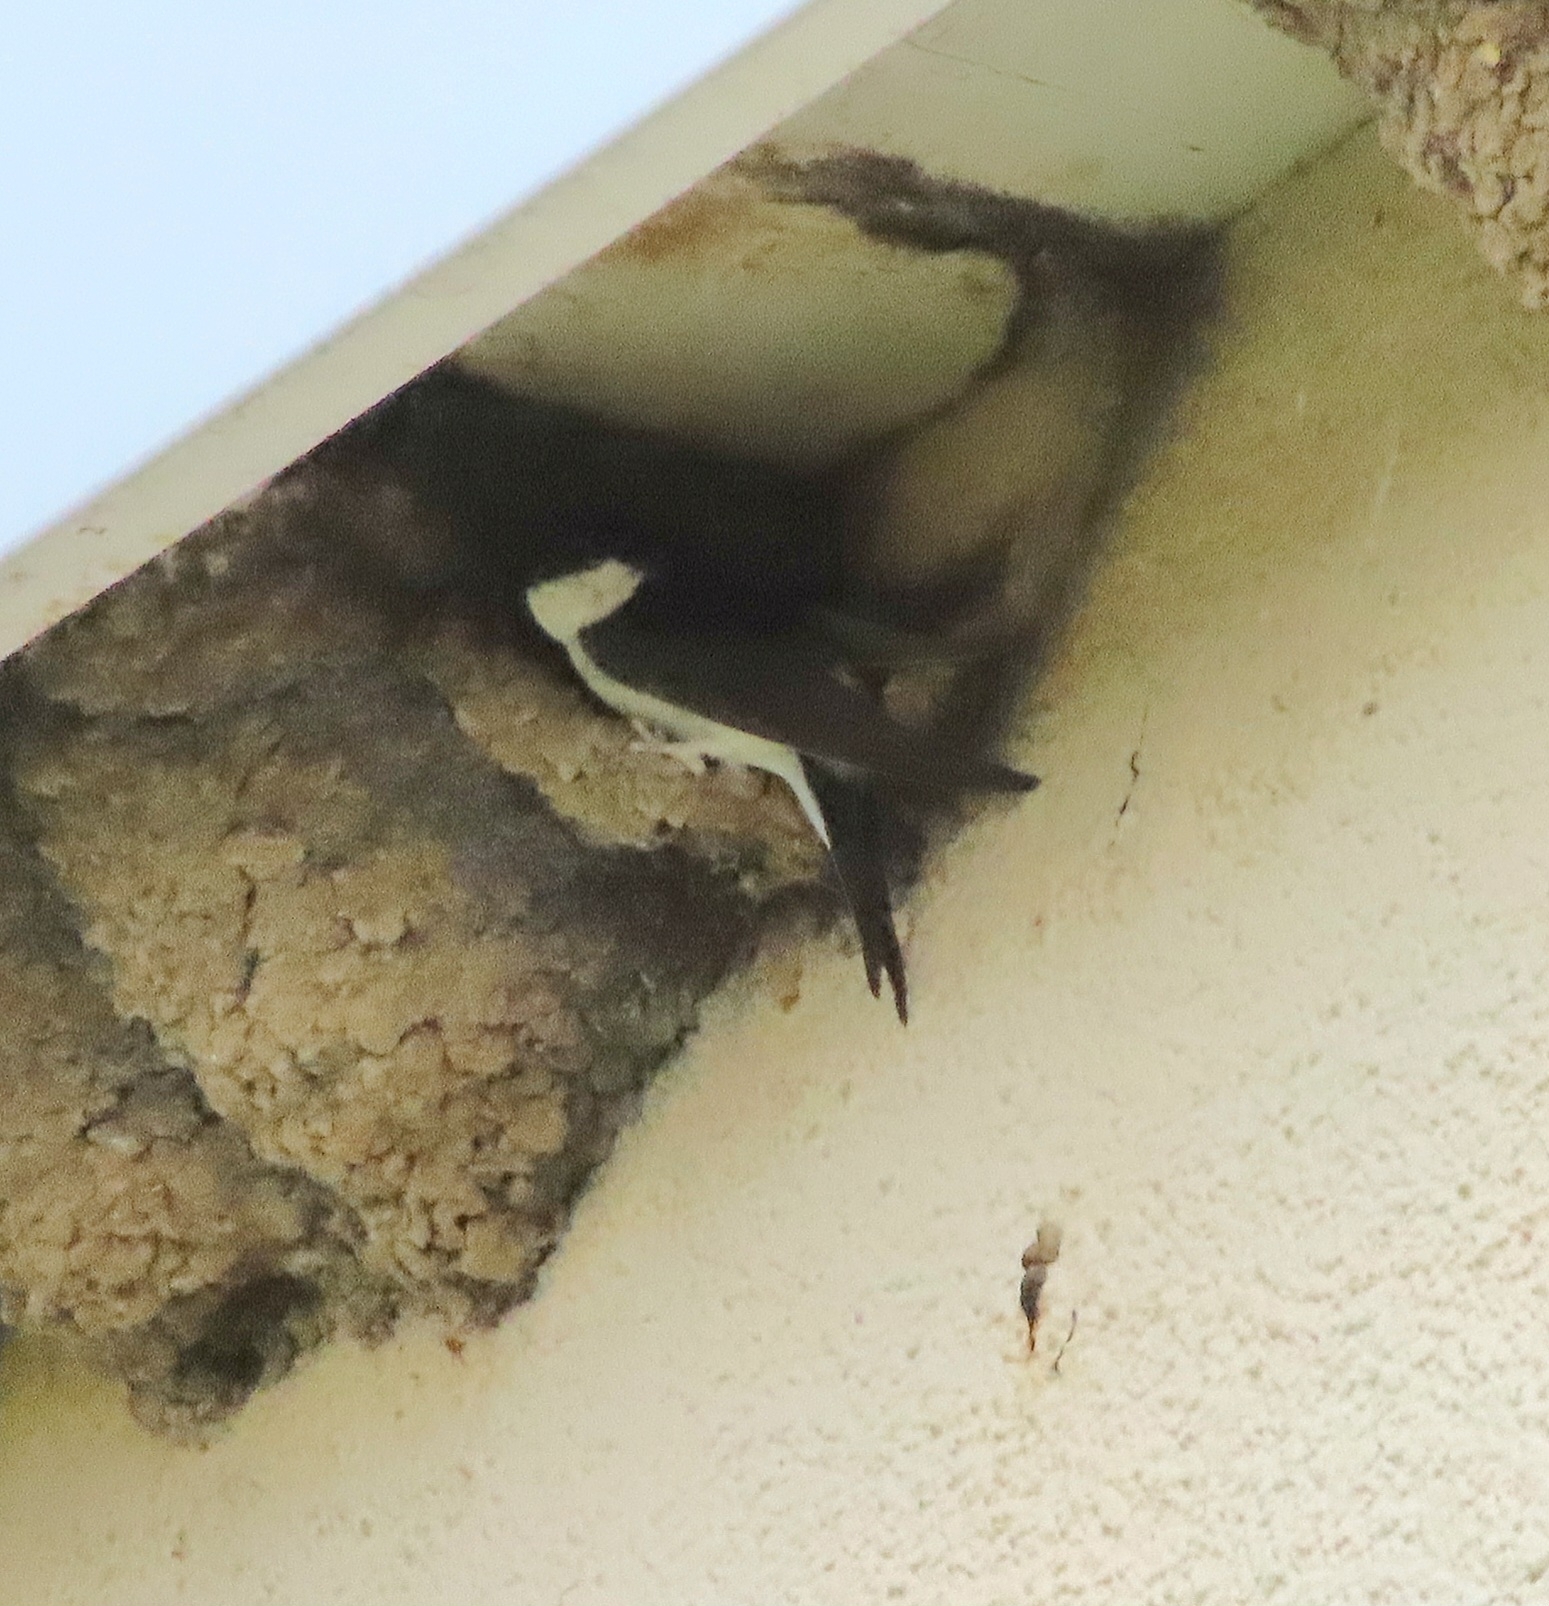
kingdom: Animalia
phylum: Chordata
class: Aves
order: Passeriformes
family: Hirundinidae
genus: Delichon
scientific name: Delichon urbicum
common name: Common house martin
